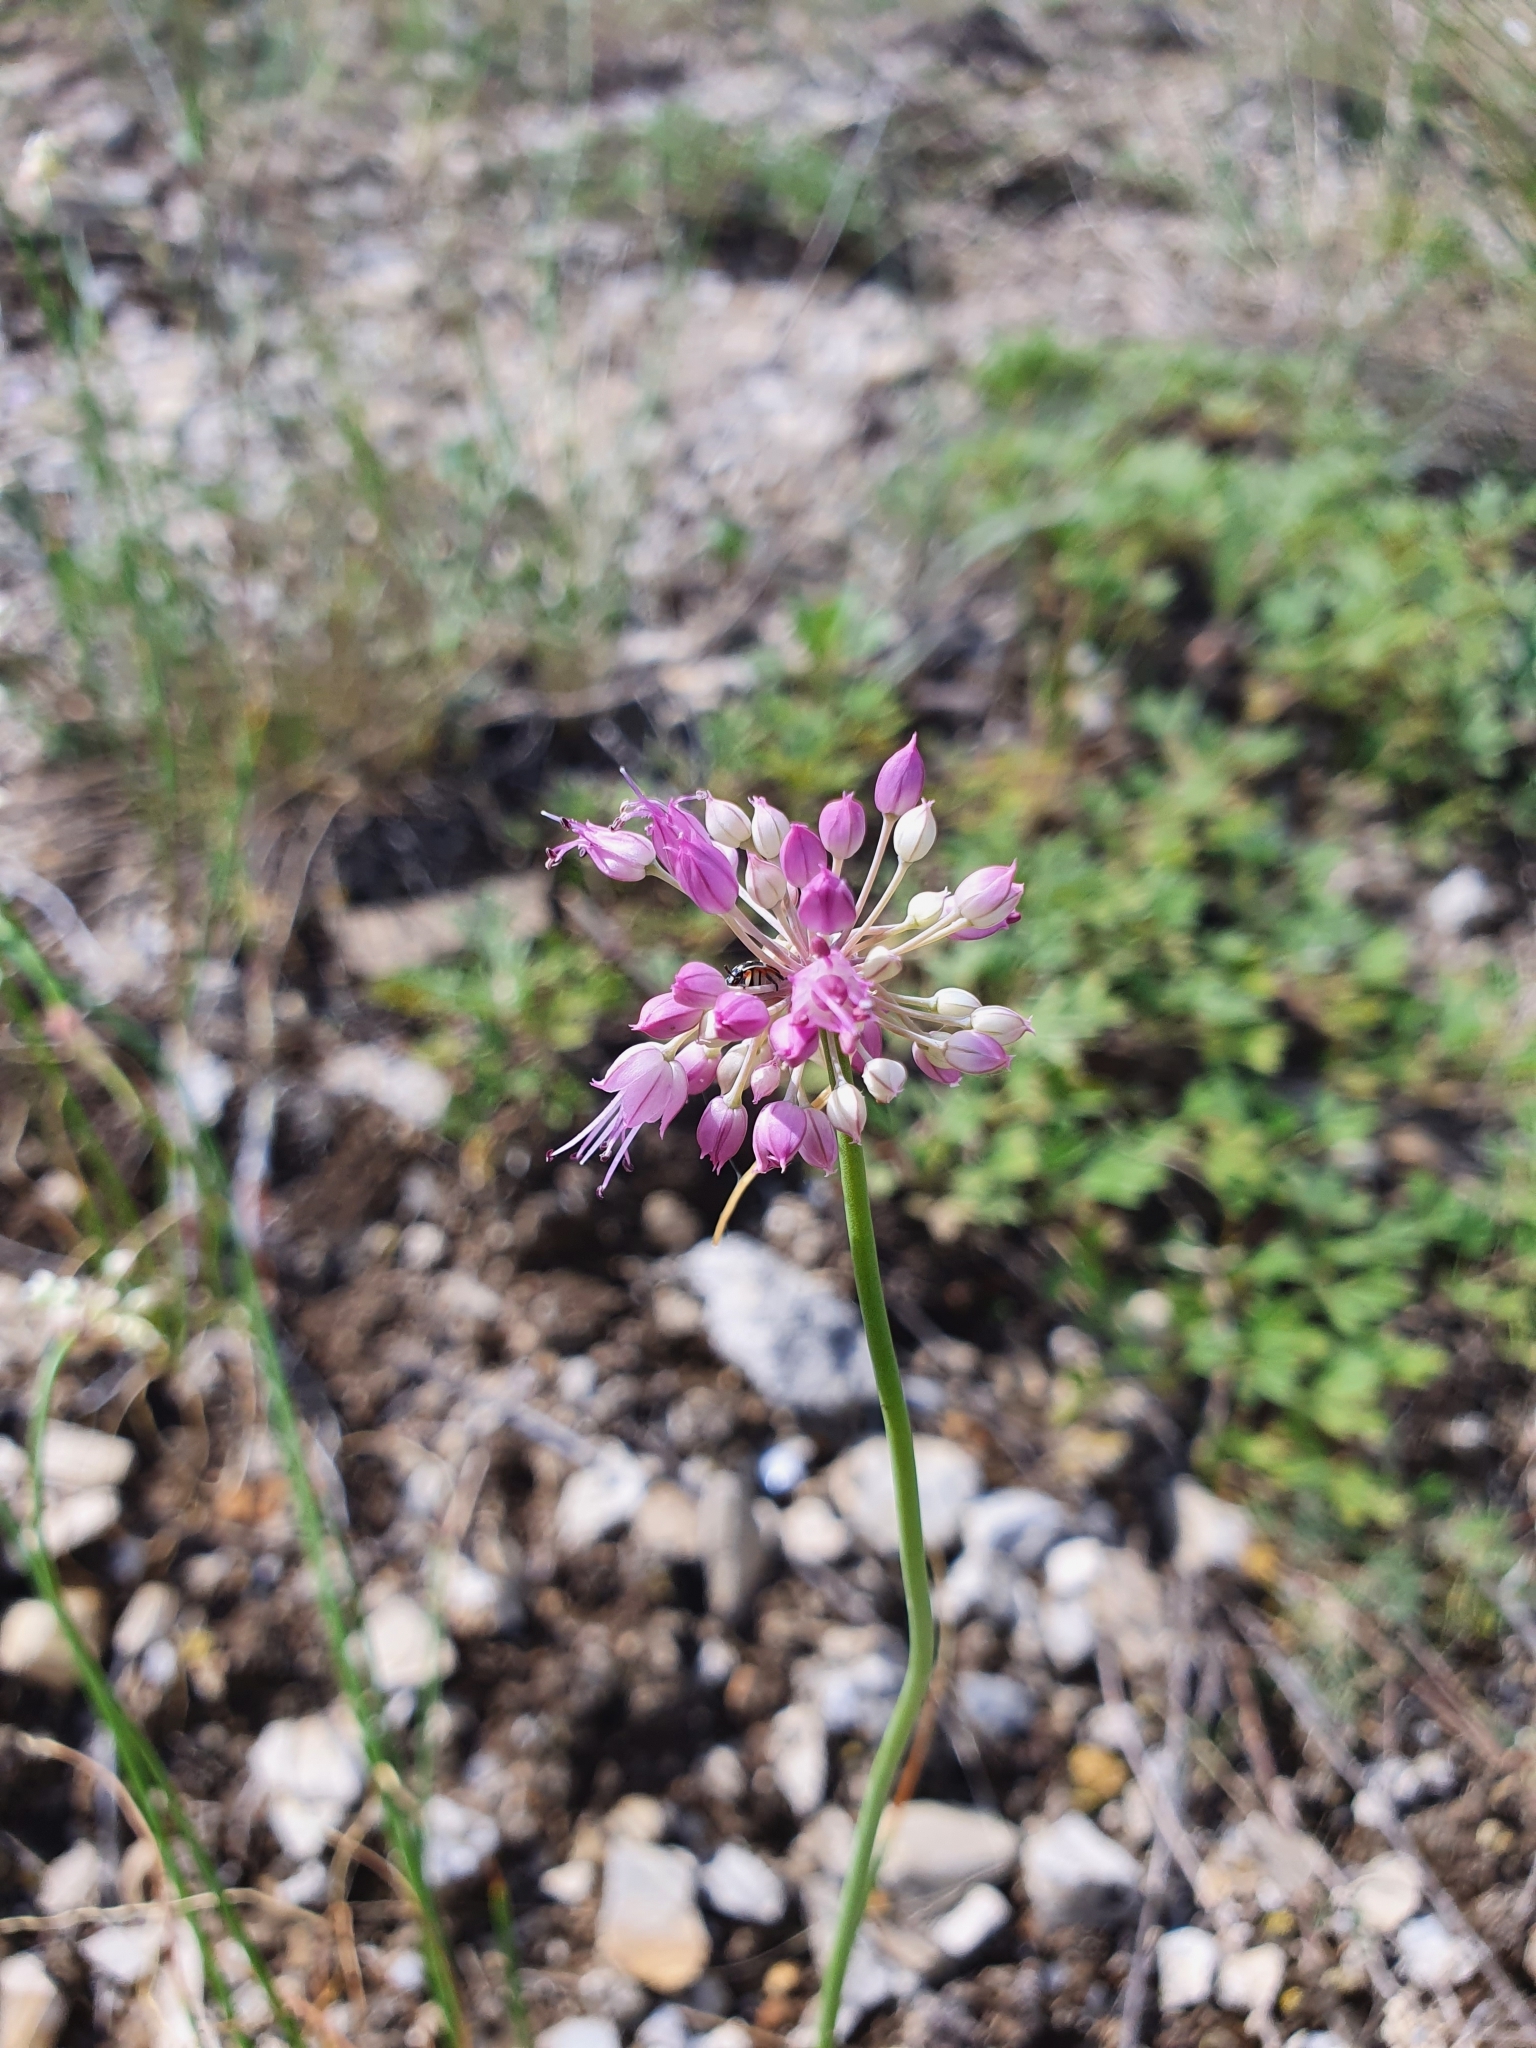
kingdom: Plantae
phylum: Tracheophyta
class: Liliopsida
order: Asparagales
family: Amaryllidaceae
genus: Allium
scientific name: Allium cretaceum
